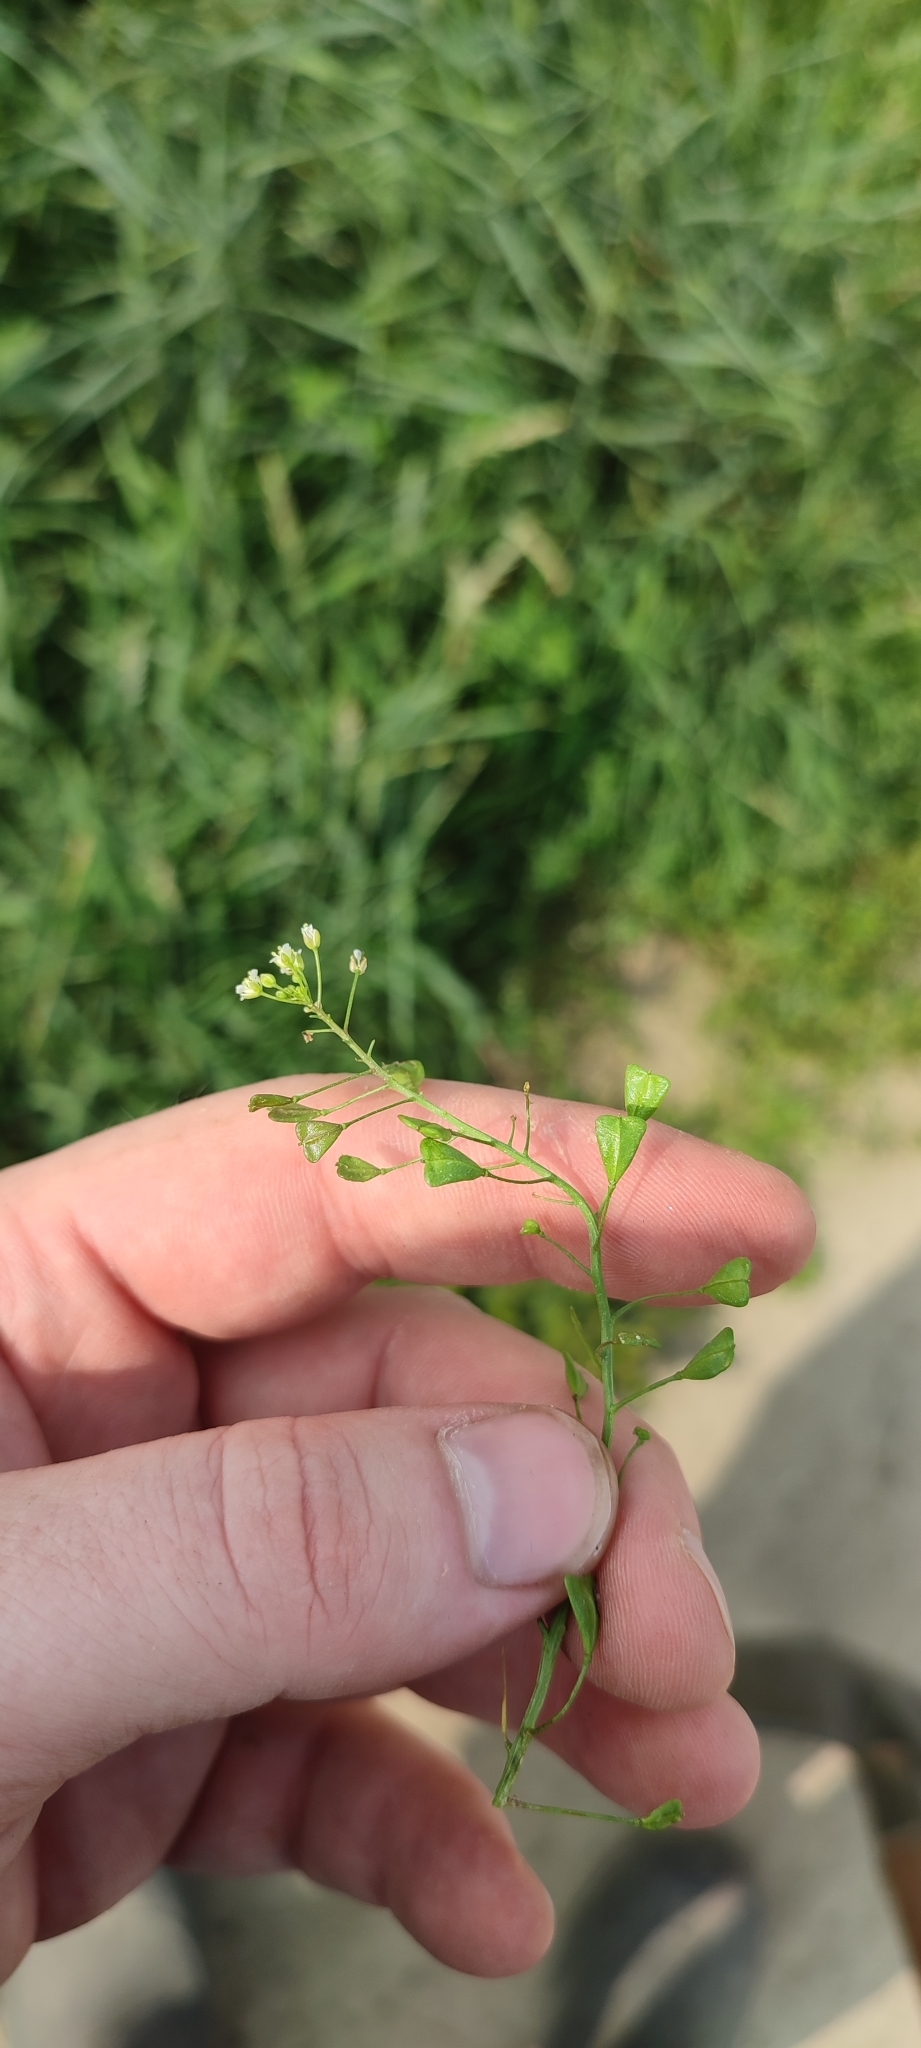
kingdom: Plantae
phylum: Tracheophyta
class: Magnoliopsida
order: Brassicales
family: Brassicaceae
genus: Capsella
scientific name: Capsella bursa-pastoris
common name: Shepherd's purse
